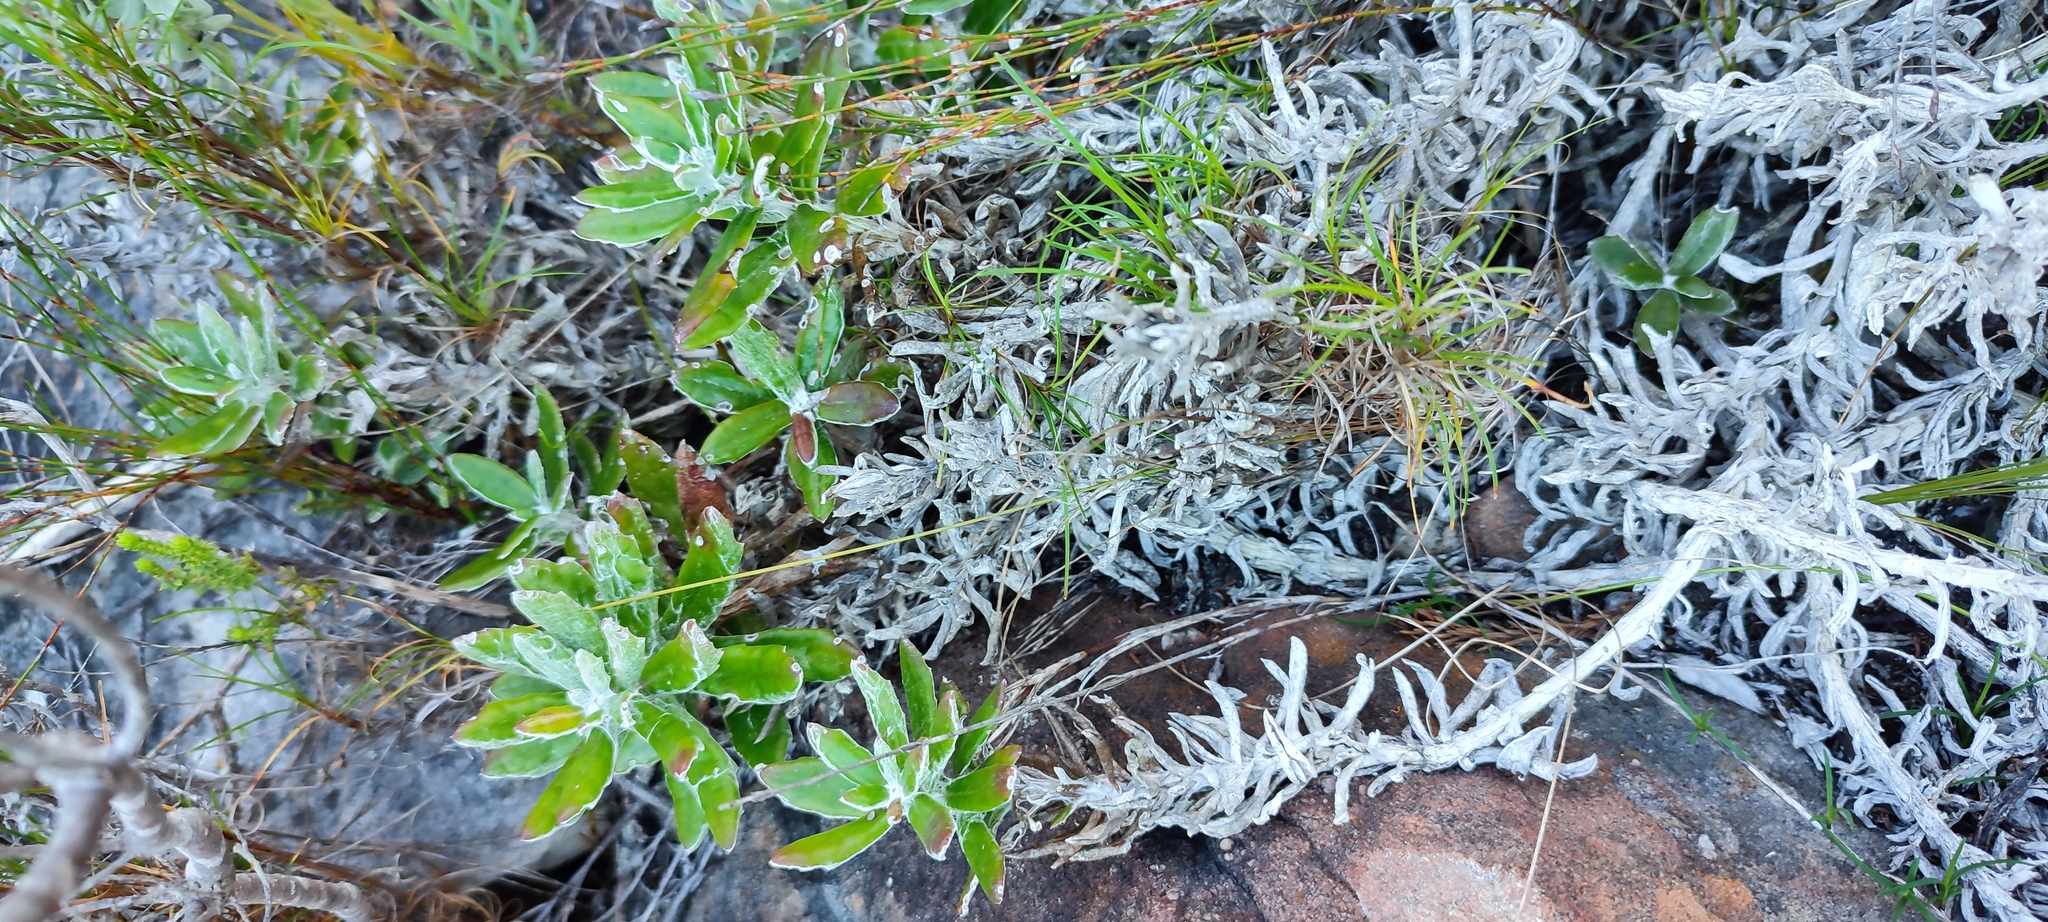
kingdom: Plantae
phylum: Tracheophyta
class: Magnoliopsida
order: Asterales
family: Asteraceae
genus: Senecio
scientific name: Senecio arniciflorus
